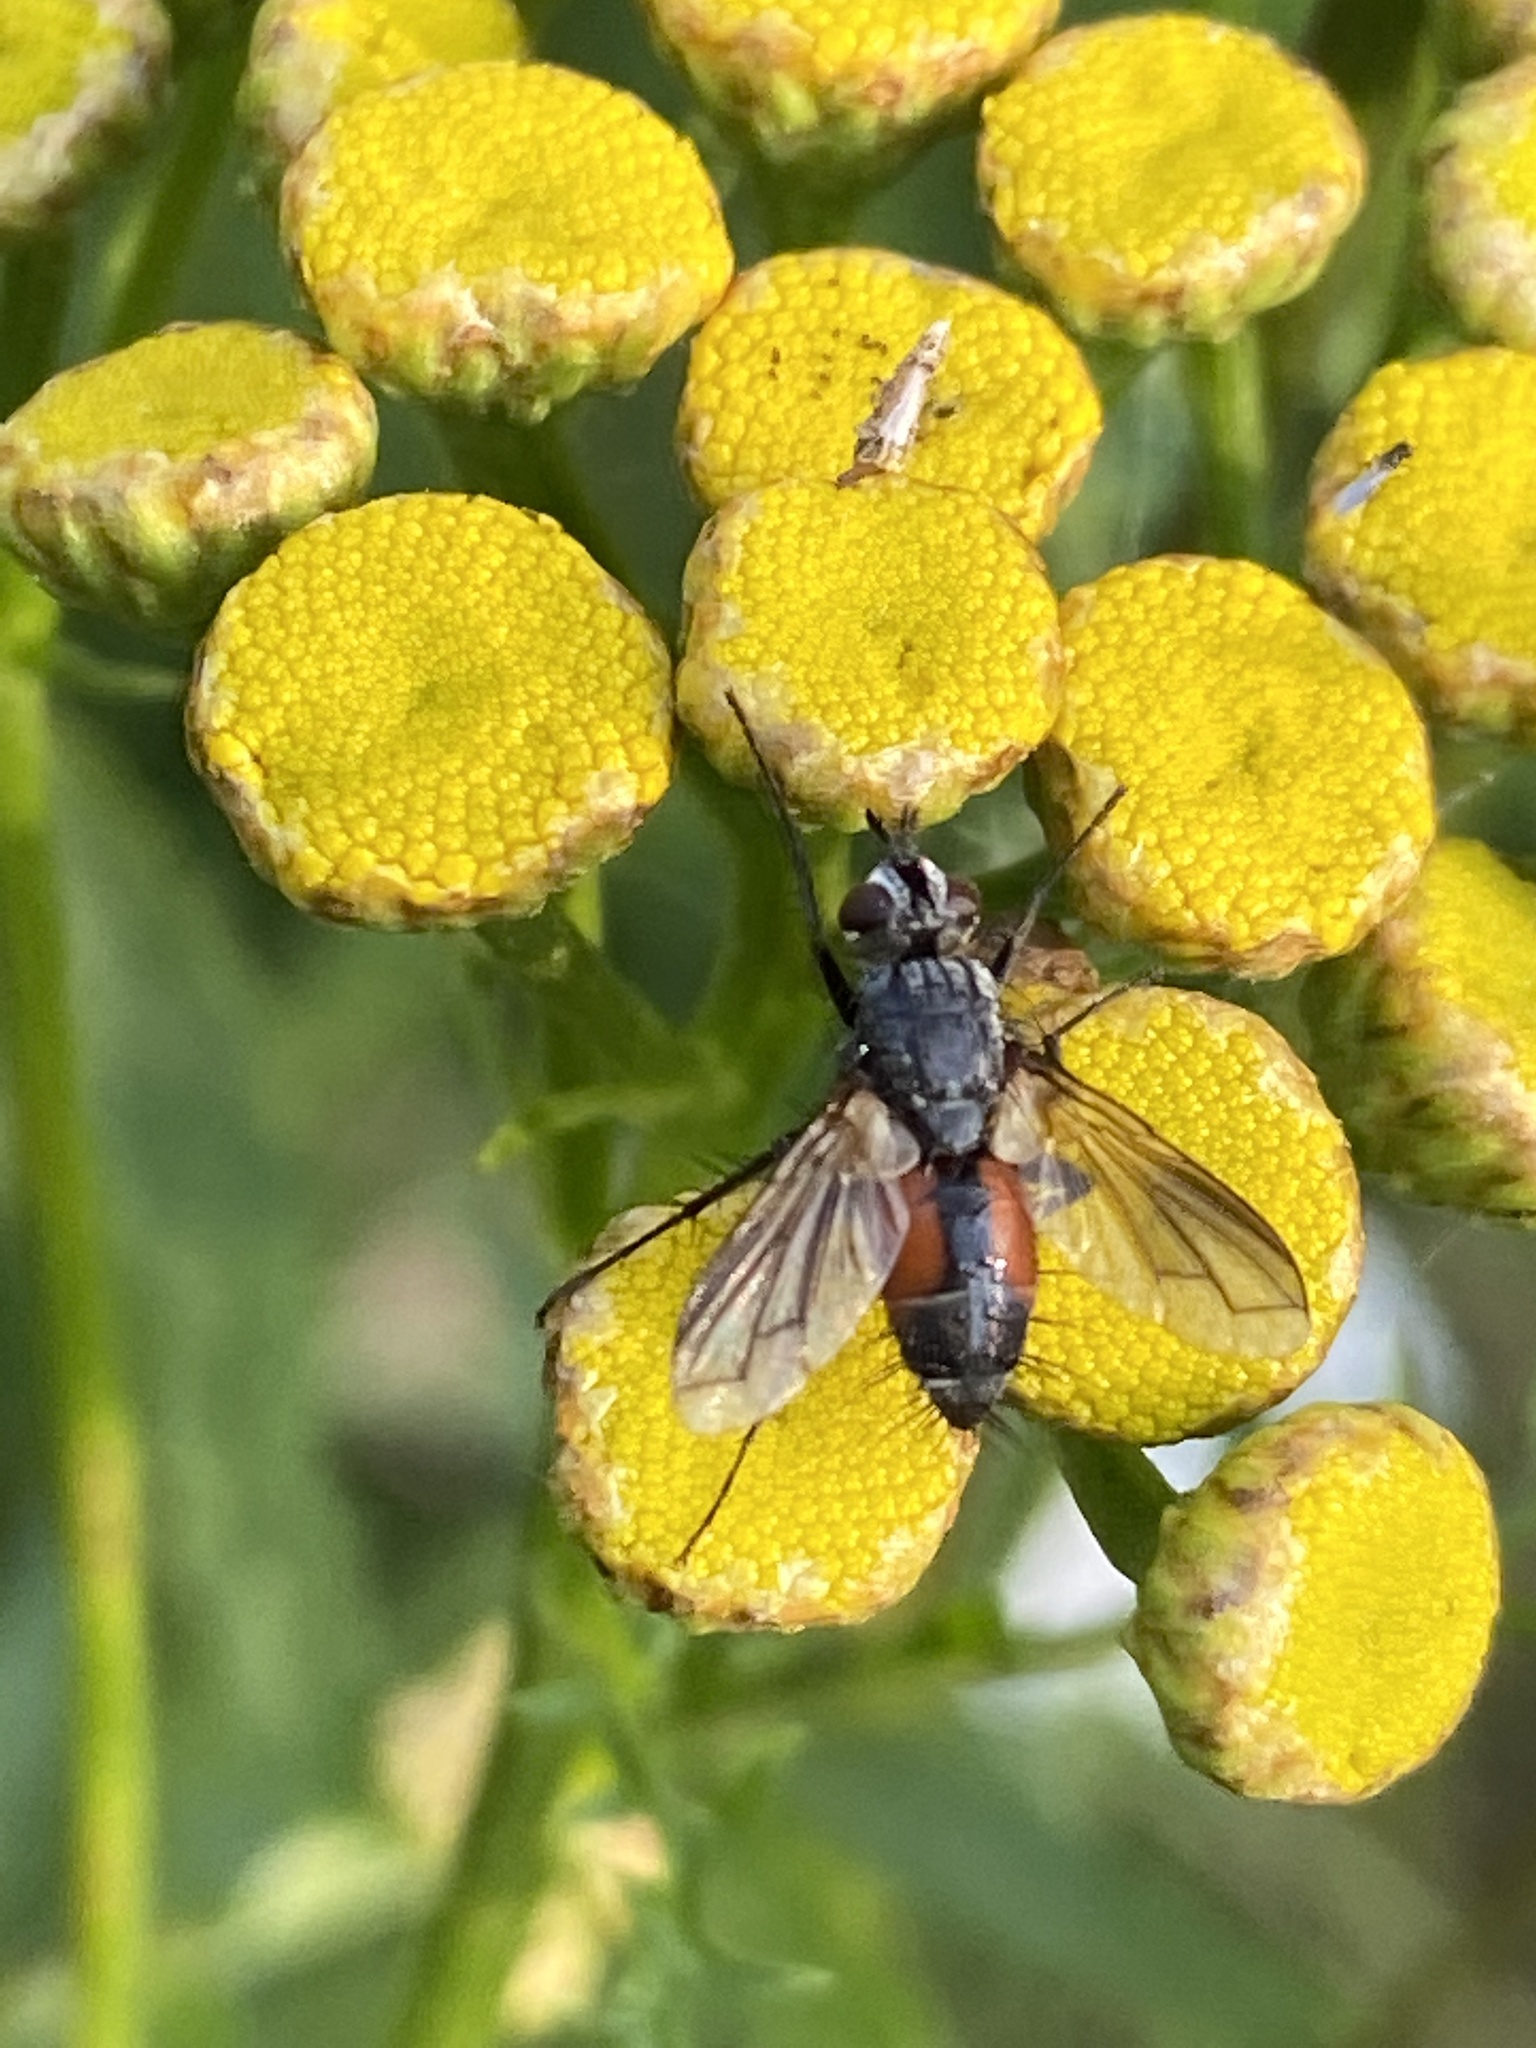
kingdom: Animalia
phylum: Arthropoda
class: Insecta
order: Diptera
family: Tachinidae
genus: Eriothrix
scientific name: Eriothrix rufomaculatus
